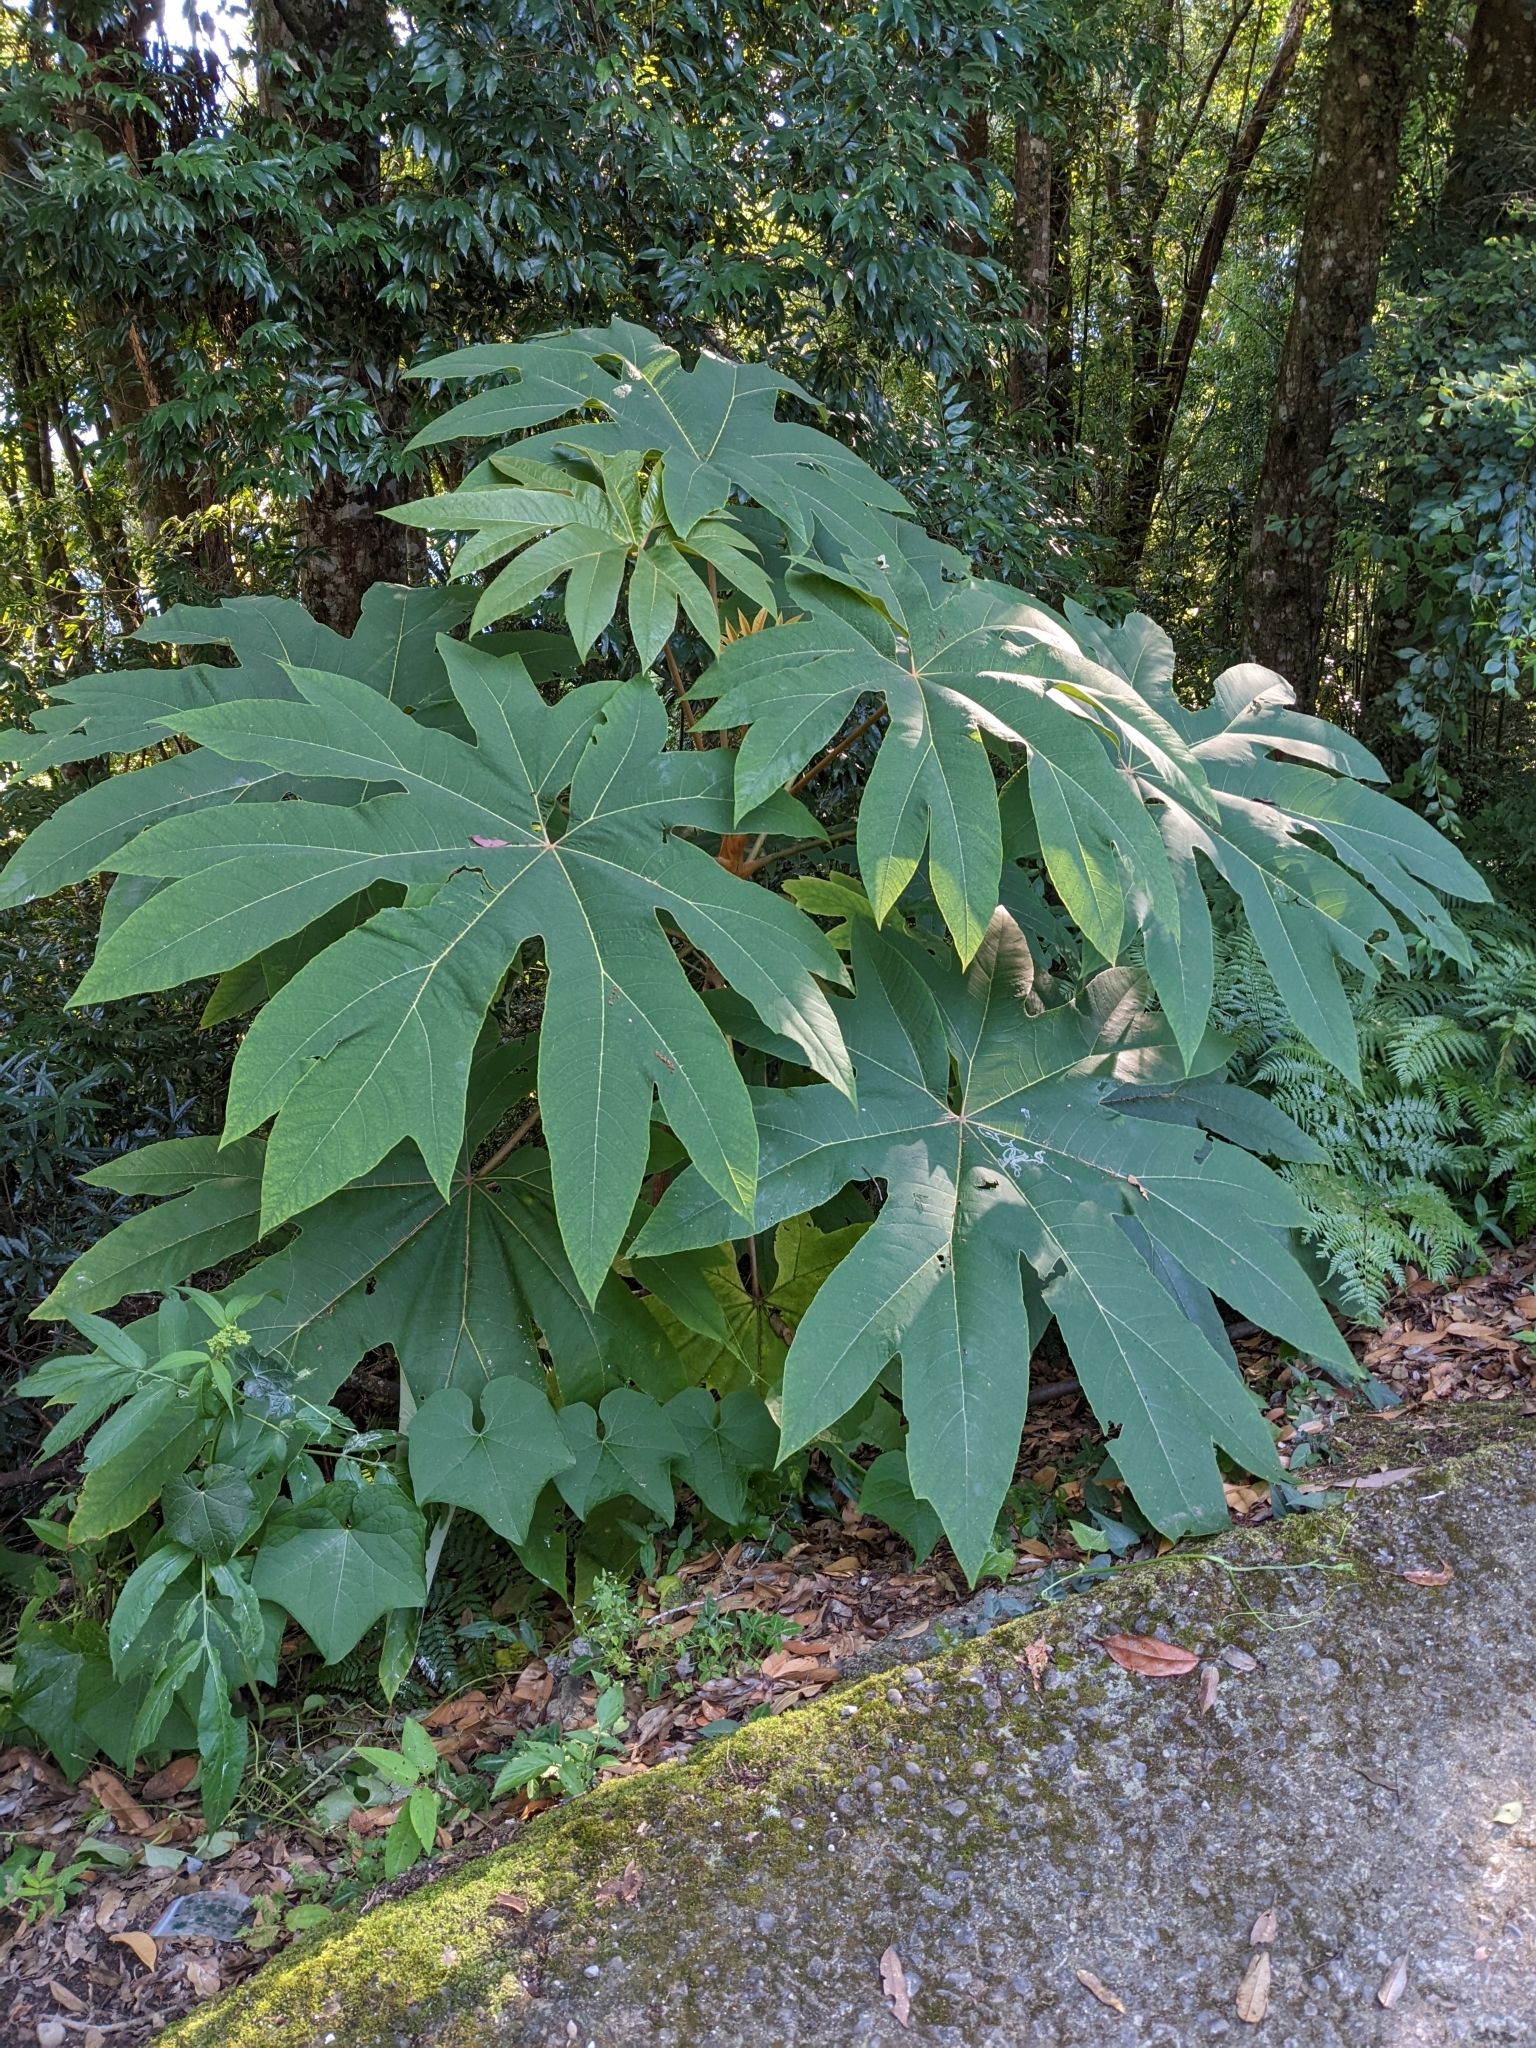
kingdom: Plantae
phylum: Tracheophyta
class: Magnoliopsida
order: Apiales
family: Araliaceae
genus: Tetrapanax
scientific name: Tetrapanax papyrifer
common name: Rice-paper plant
